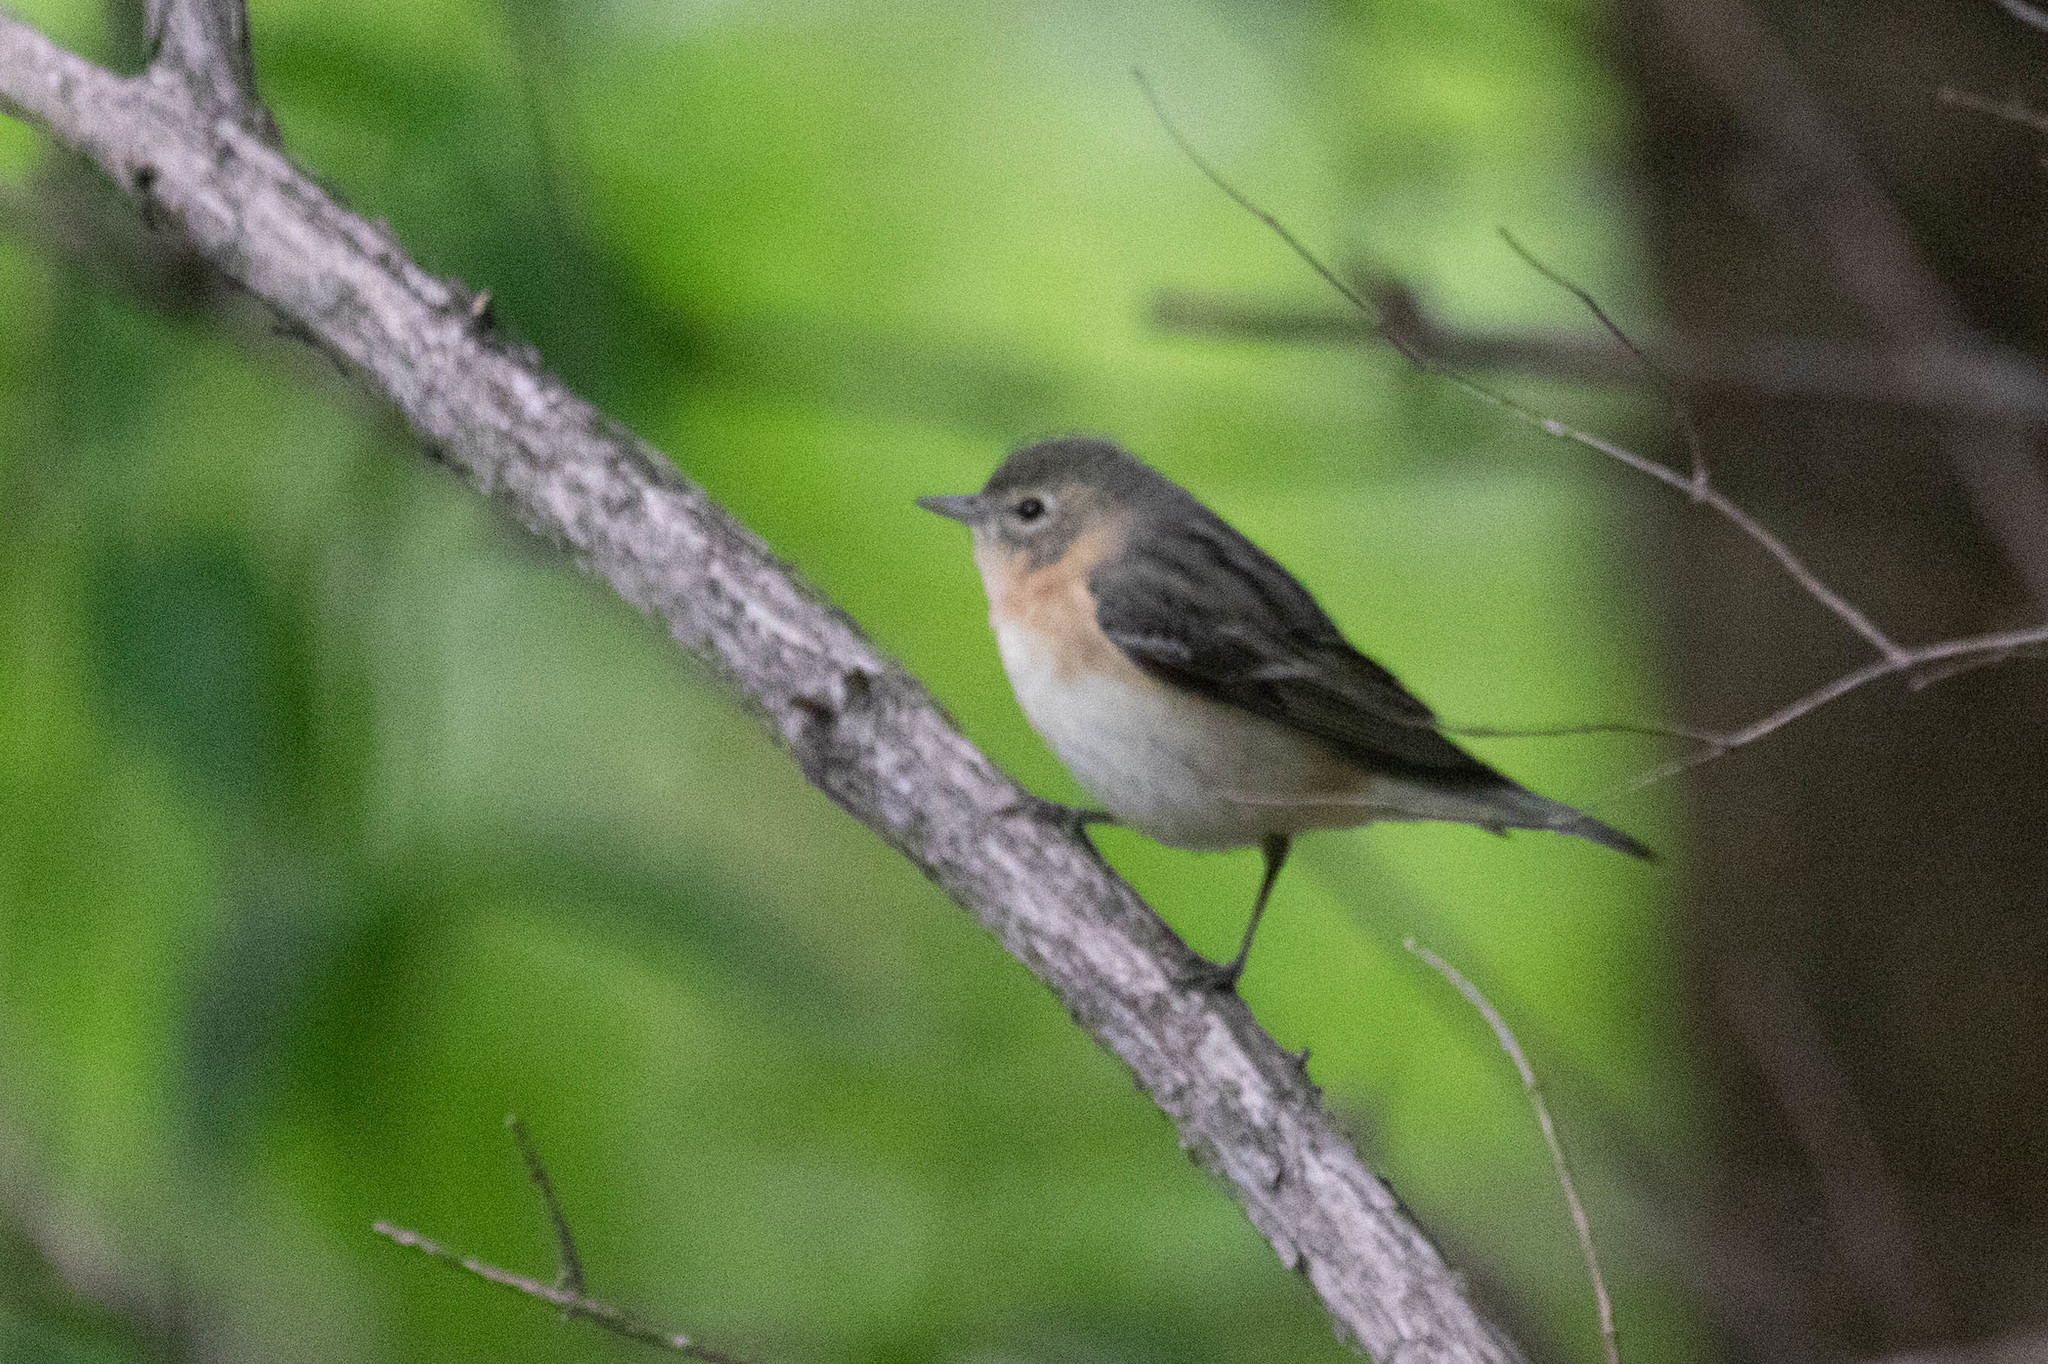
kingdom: Animalia
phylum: Chordata
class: Aves
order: Passeriformes
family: Parulidae
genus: Setophaga
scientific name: Setophaga castanea
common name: Bay-breasted warbler
